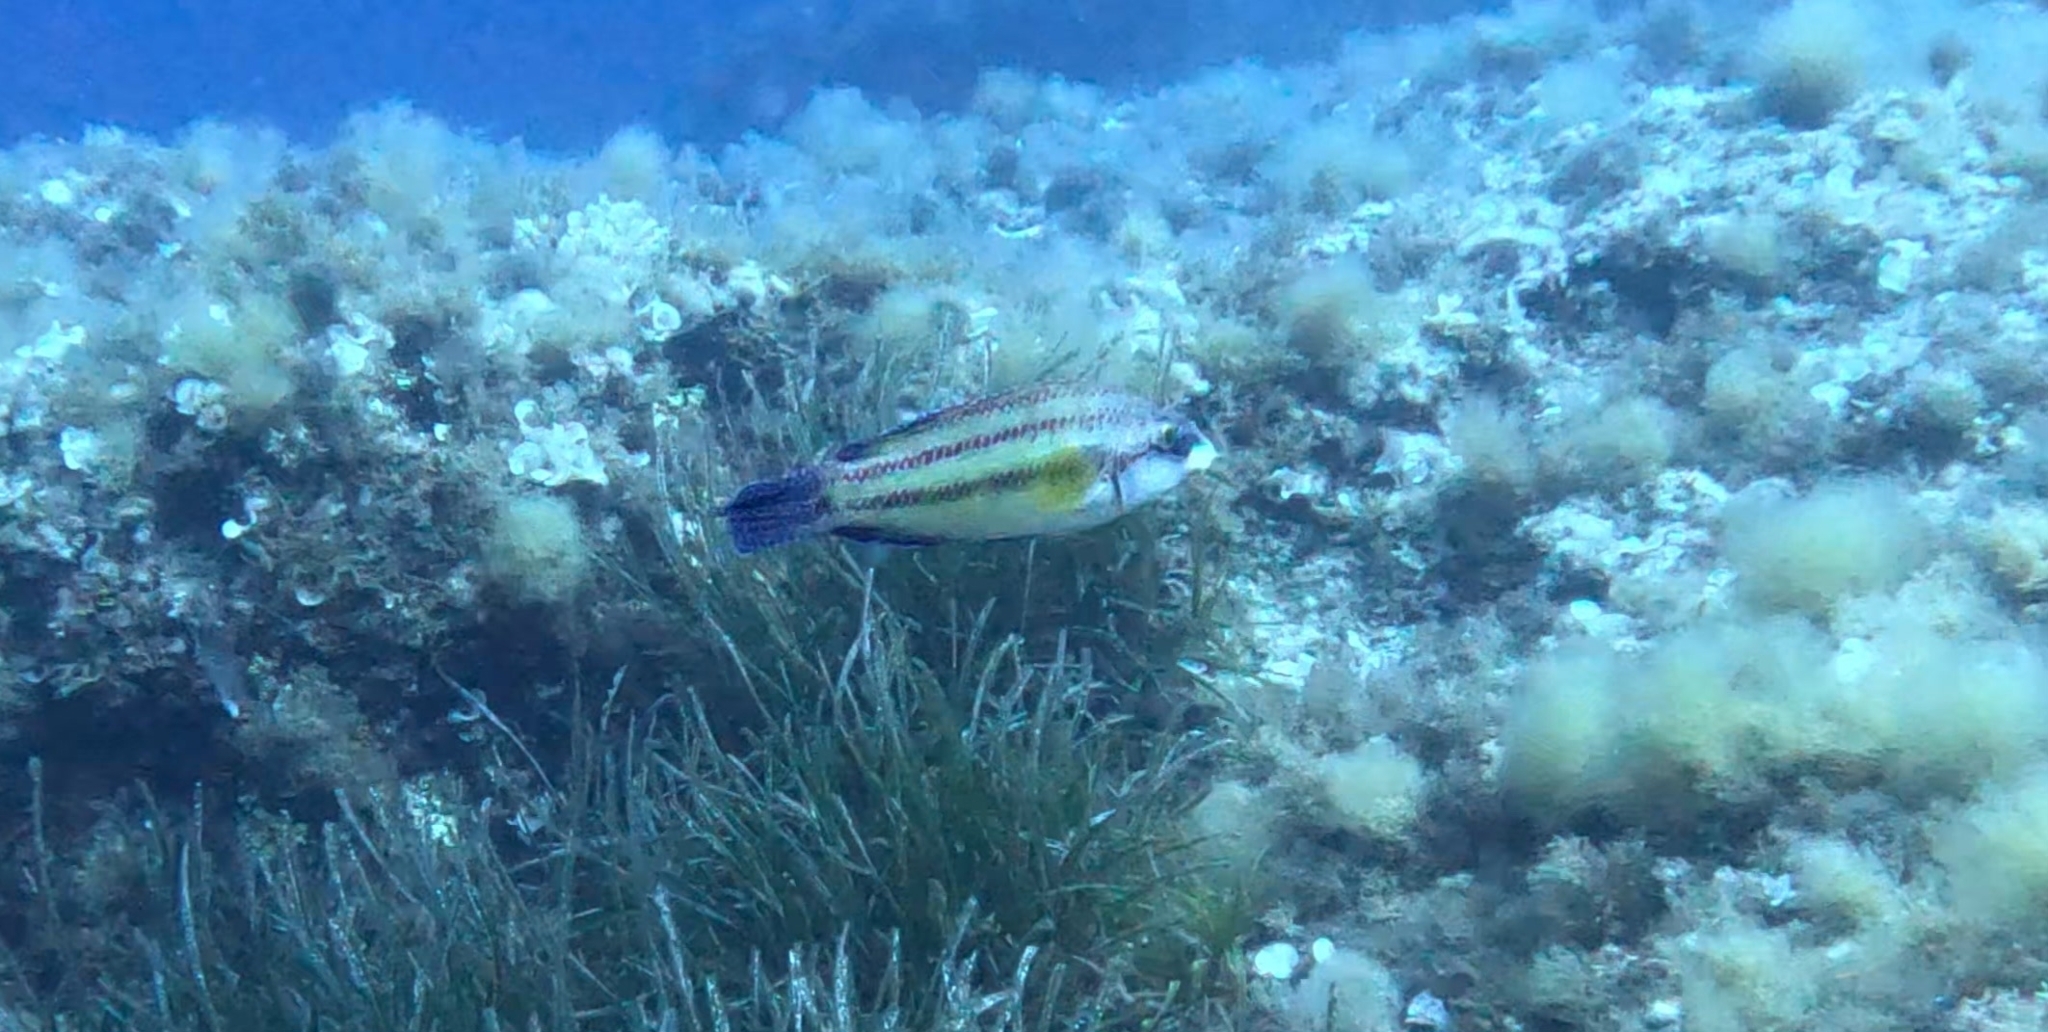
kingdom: Animalia
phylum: Chordata
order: Perciformes
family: Labridae
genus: Symphodus
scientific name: Symphodus tinca
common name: Peacock wrasse
